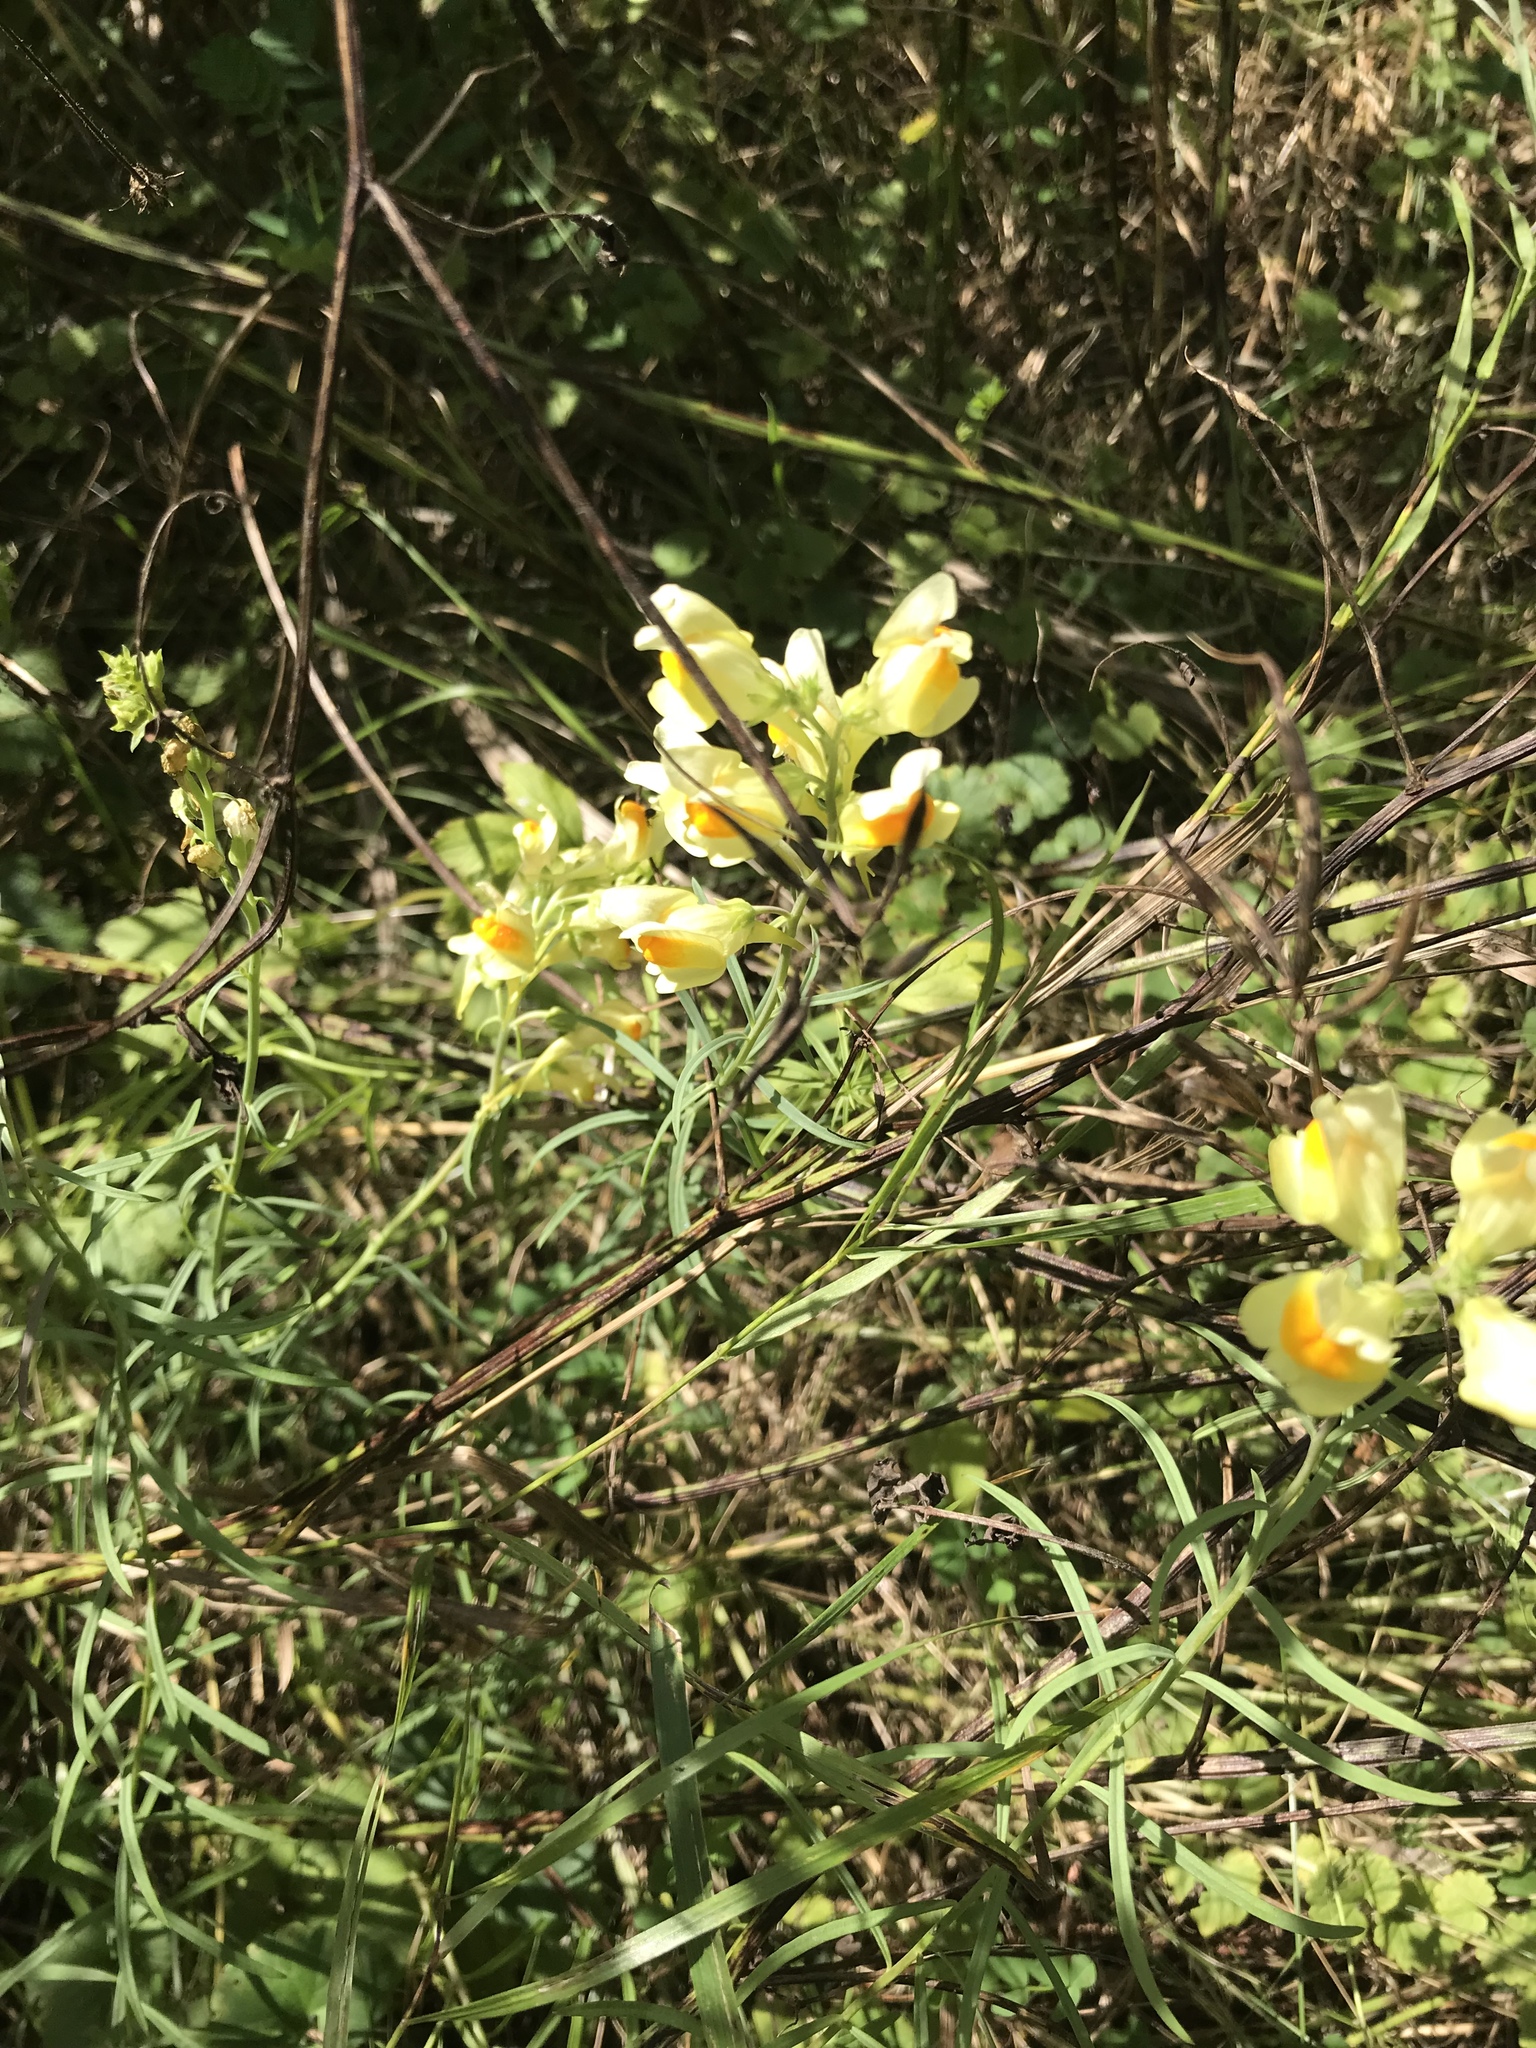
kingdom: Plantae
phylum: Tracheophyta
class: Magnoliopsida
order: Lamiales
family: Plantaginaceae
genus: Linaria
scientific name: Linaria vulgaris
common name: Butter and eggs
